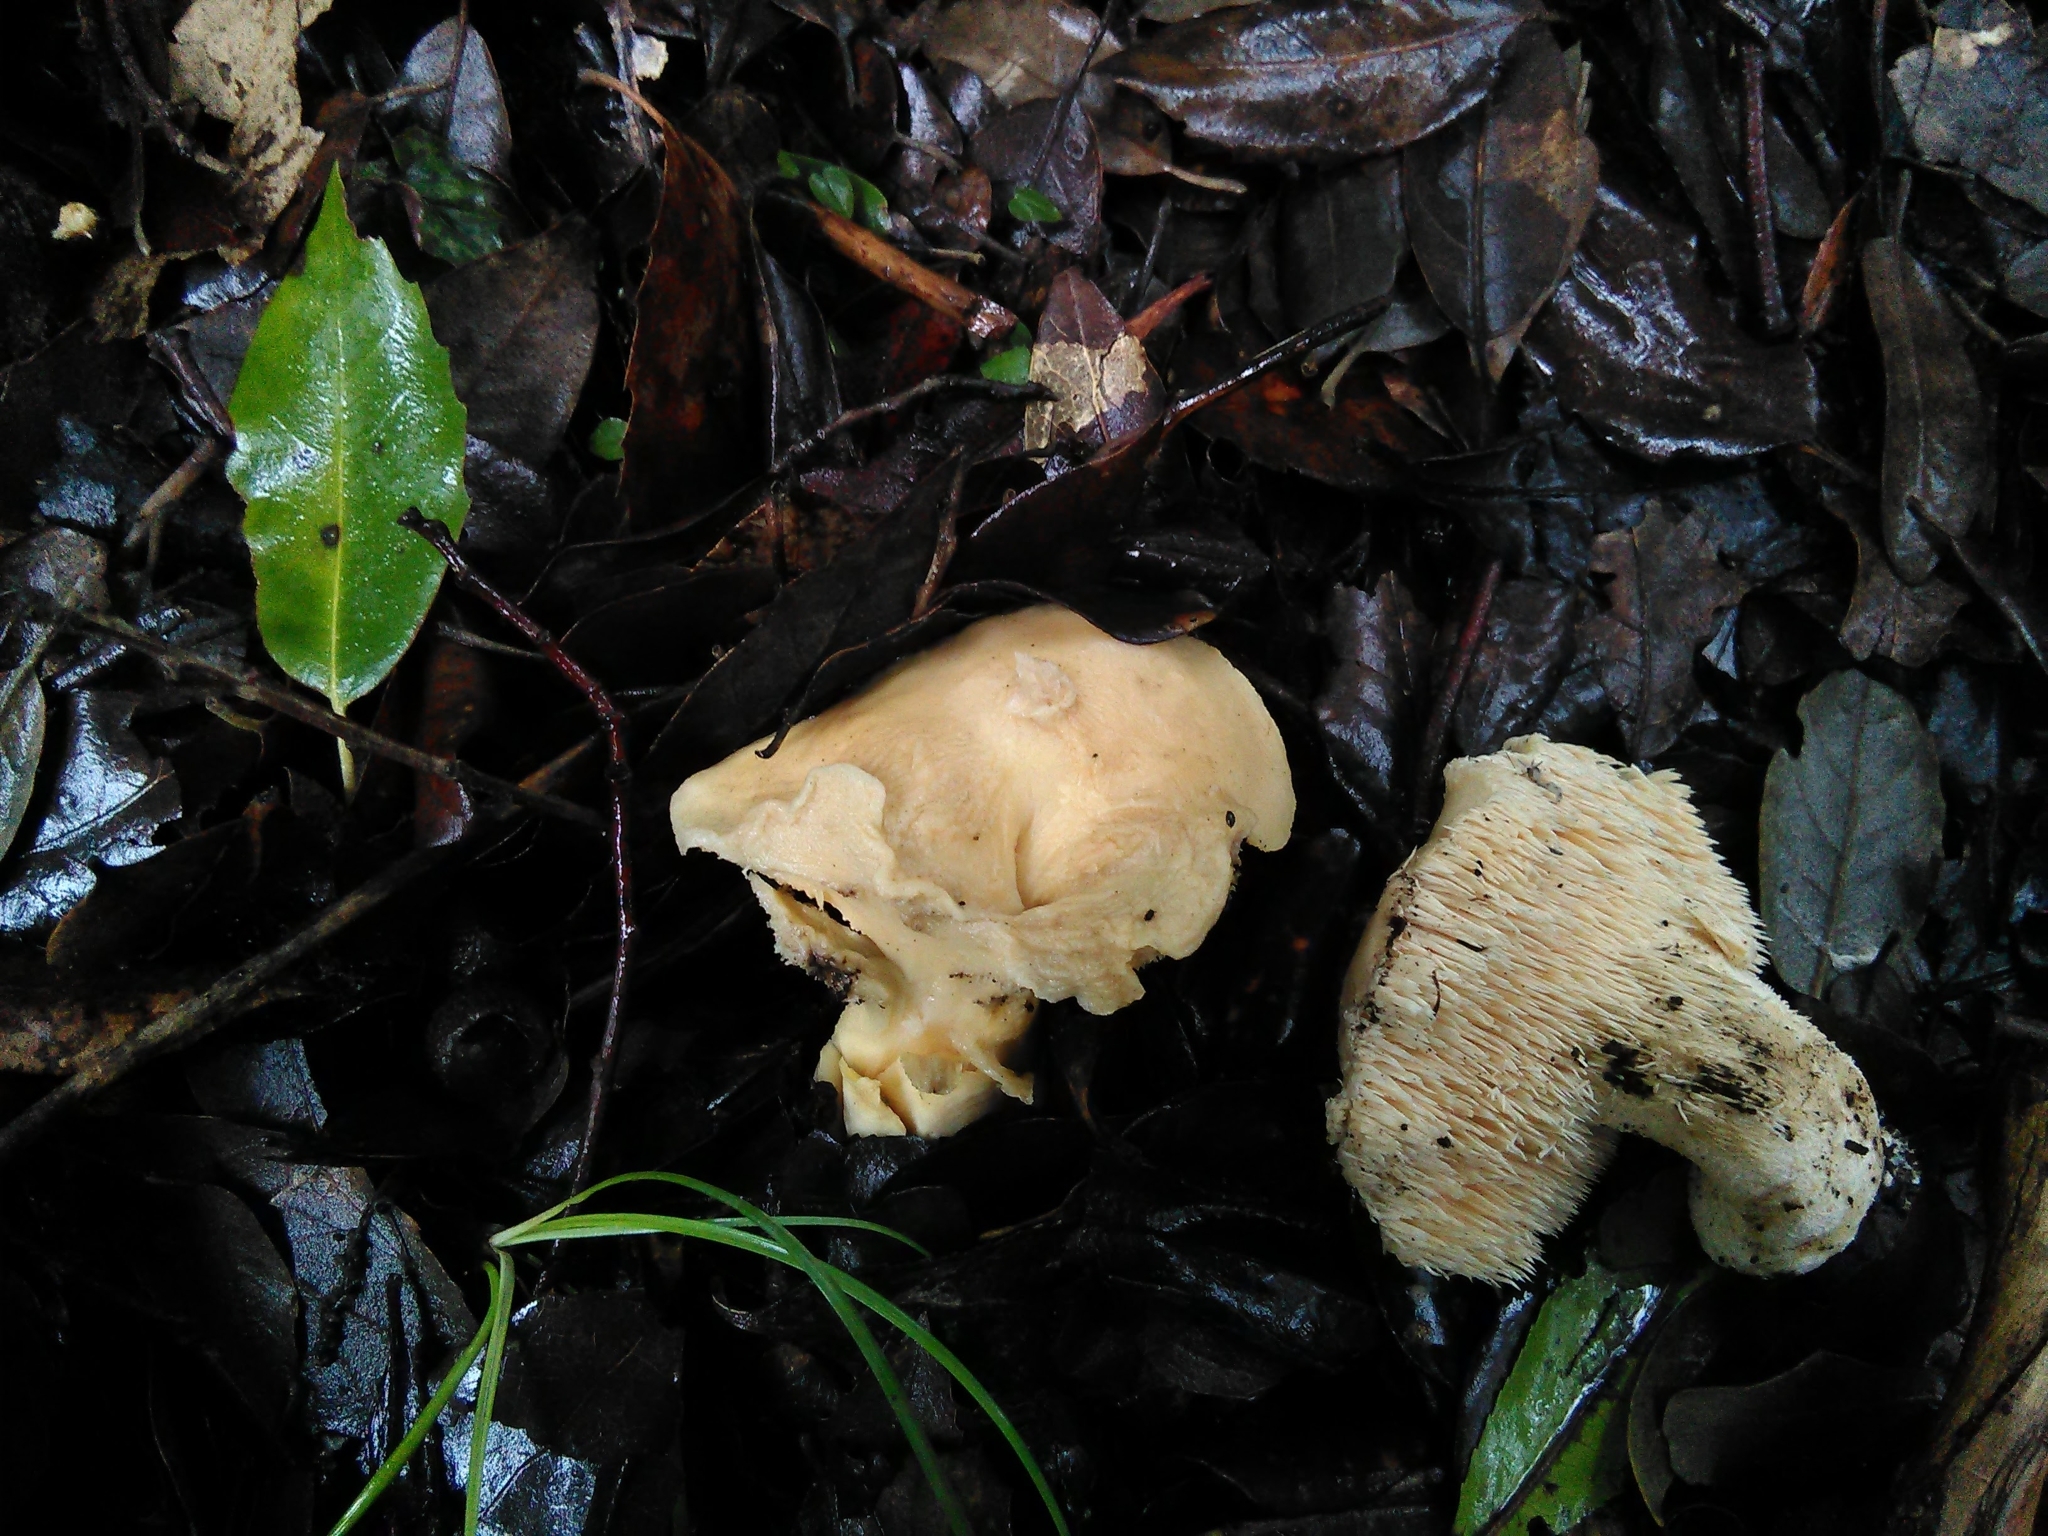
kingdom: Fungi
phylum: Basidiomycota
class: Agaricomycetes
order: Cantharellales
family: Hydnaceae
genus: Hydnum
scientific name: Hydnum repandum
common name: Wood hedgehog
